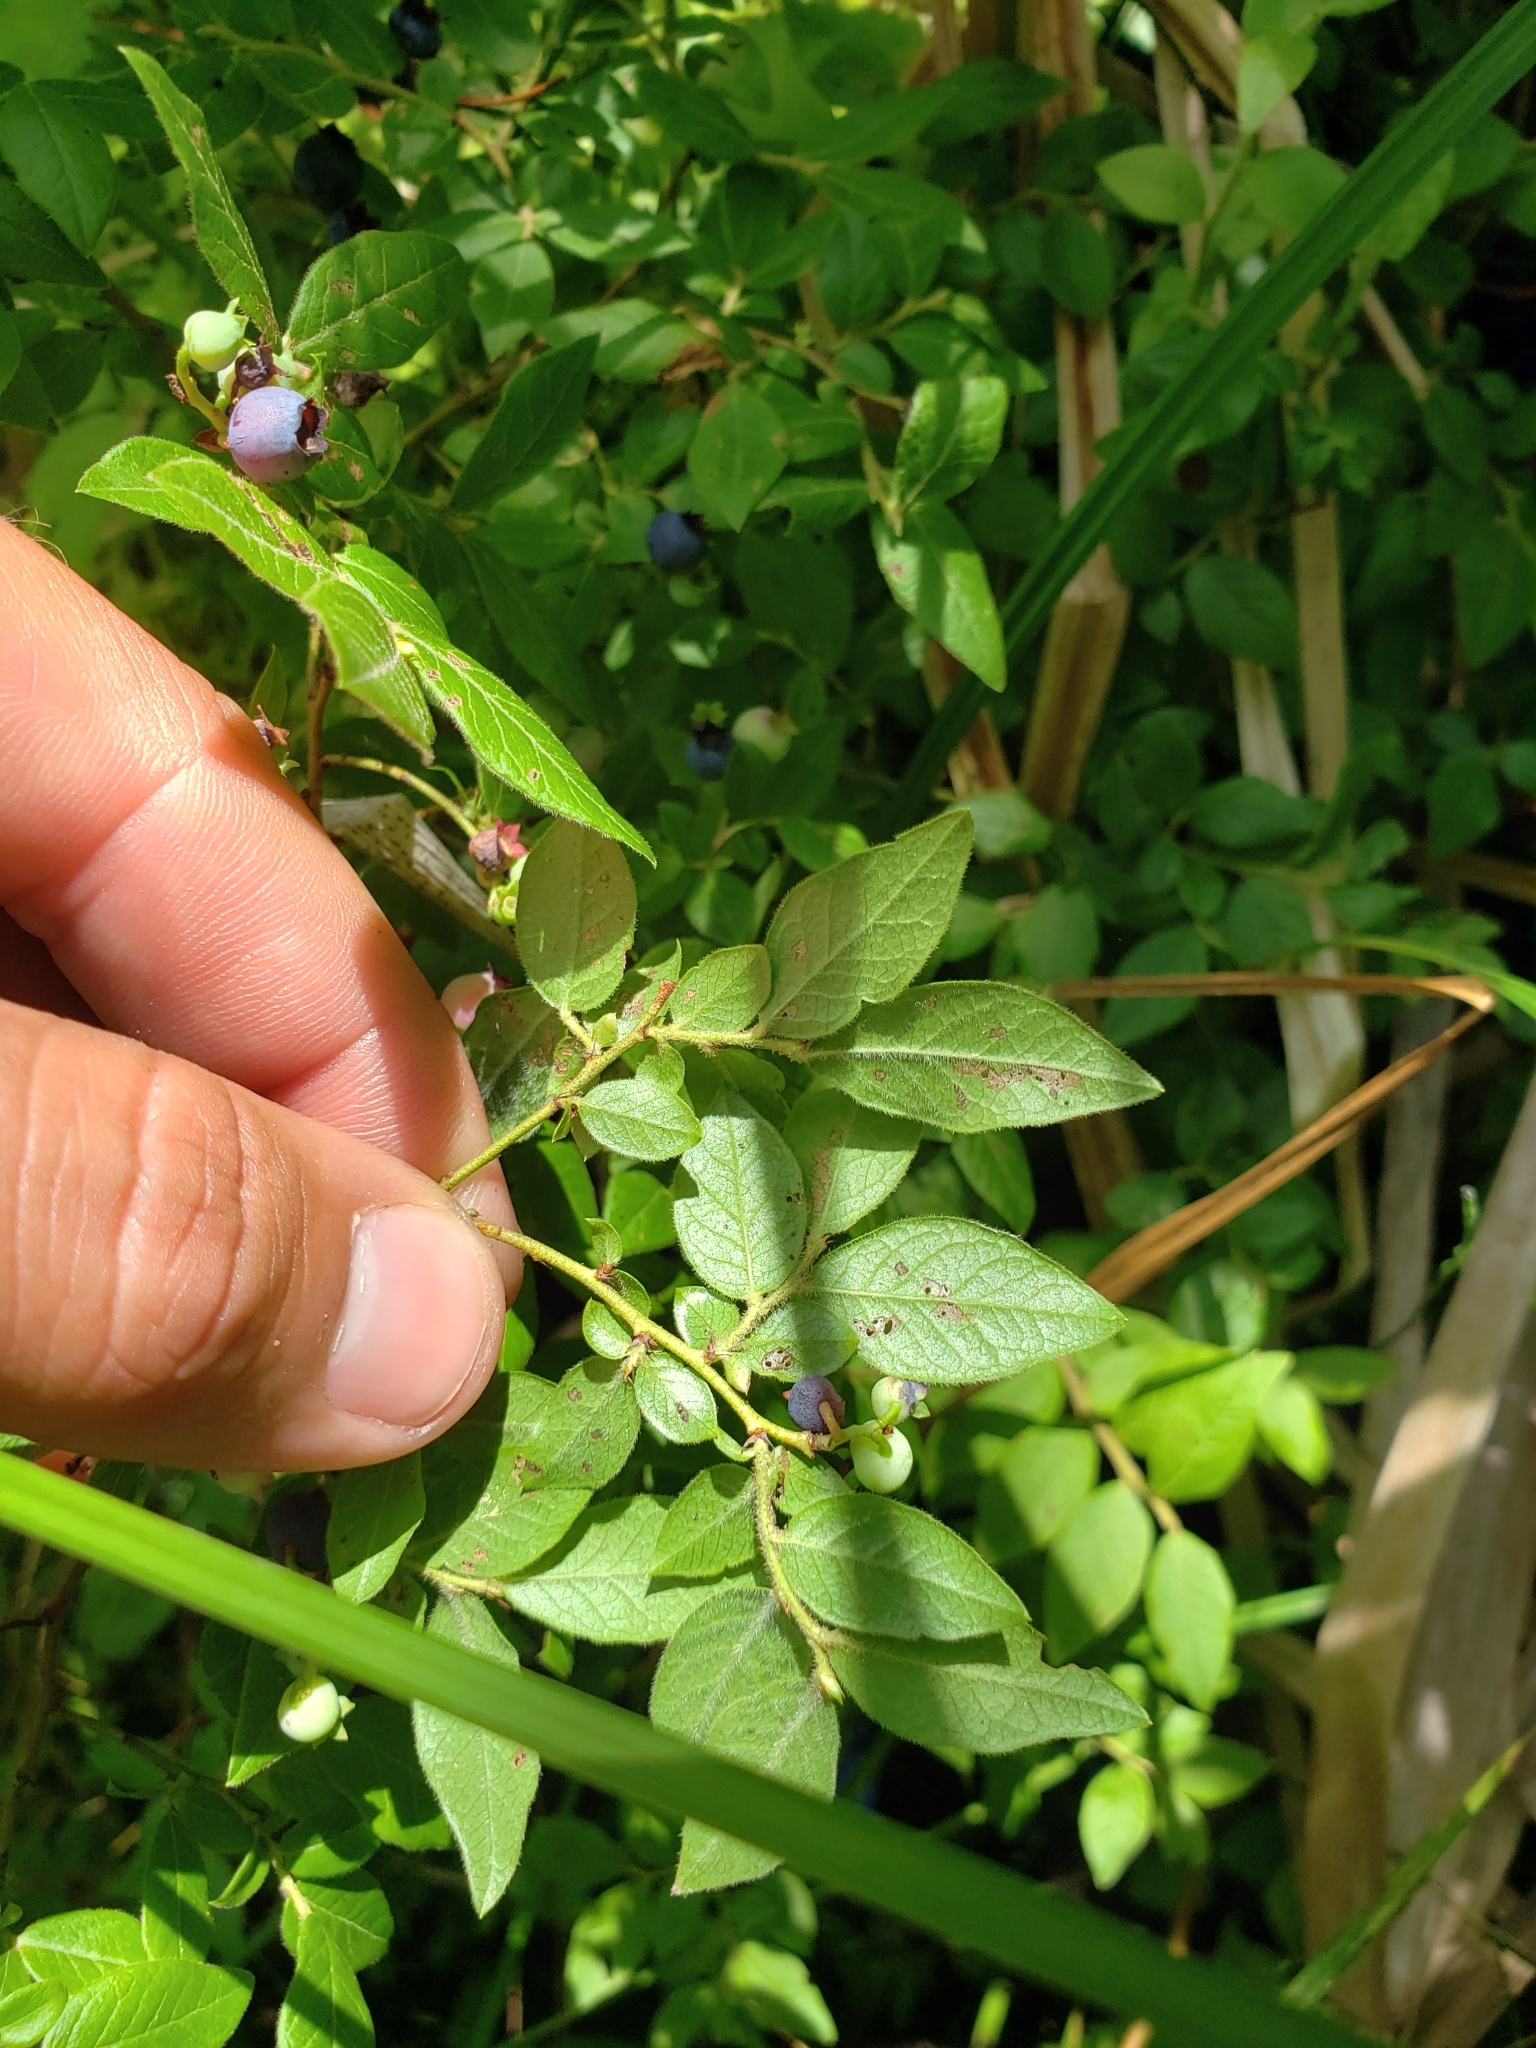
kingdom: Plantae
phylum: Tracheophyta
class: Magnoliopsida
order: Ericales
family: Ericaceae
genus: Vaccinium
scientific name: Vaccinium myrtilloides
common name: Canada blueberry
